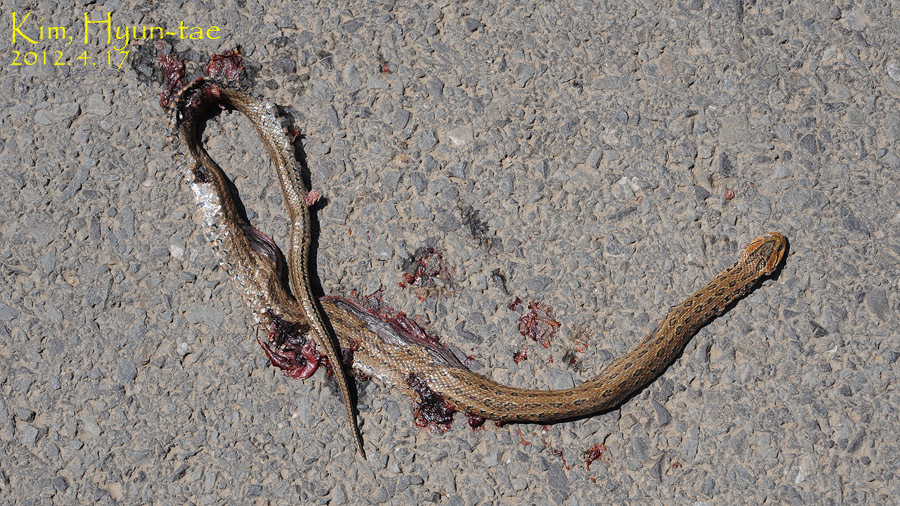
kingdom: Animalia
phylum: Chordata
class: Squamata
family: Colubridae
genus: Oocatochus
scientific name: Oocatochus rufodorsatus
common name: Frog-eating rat snake
